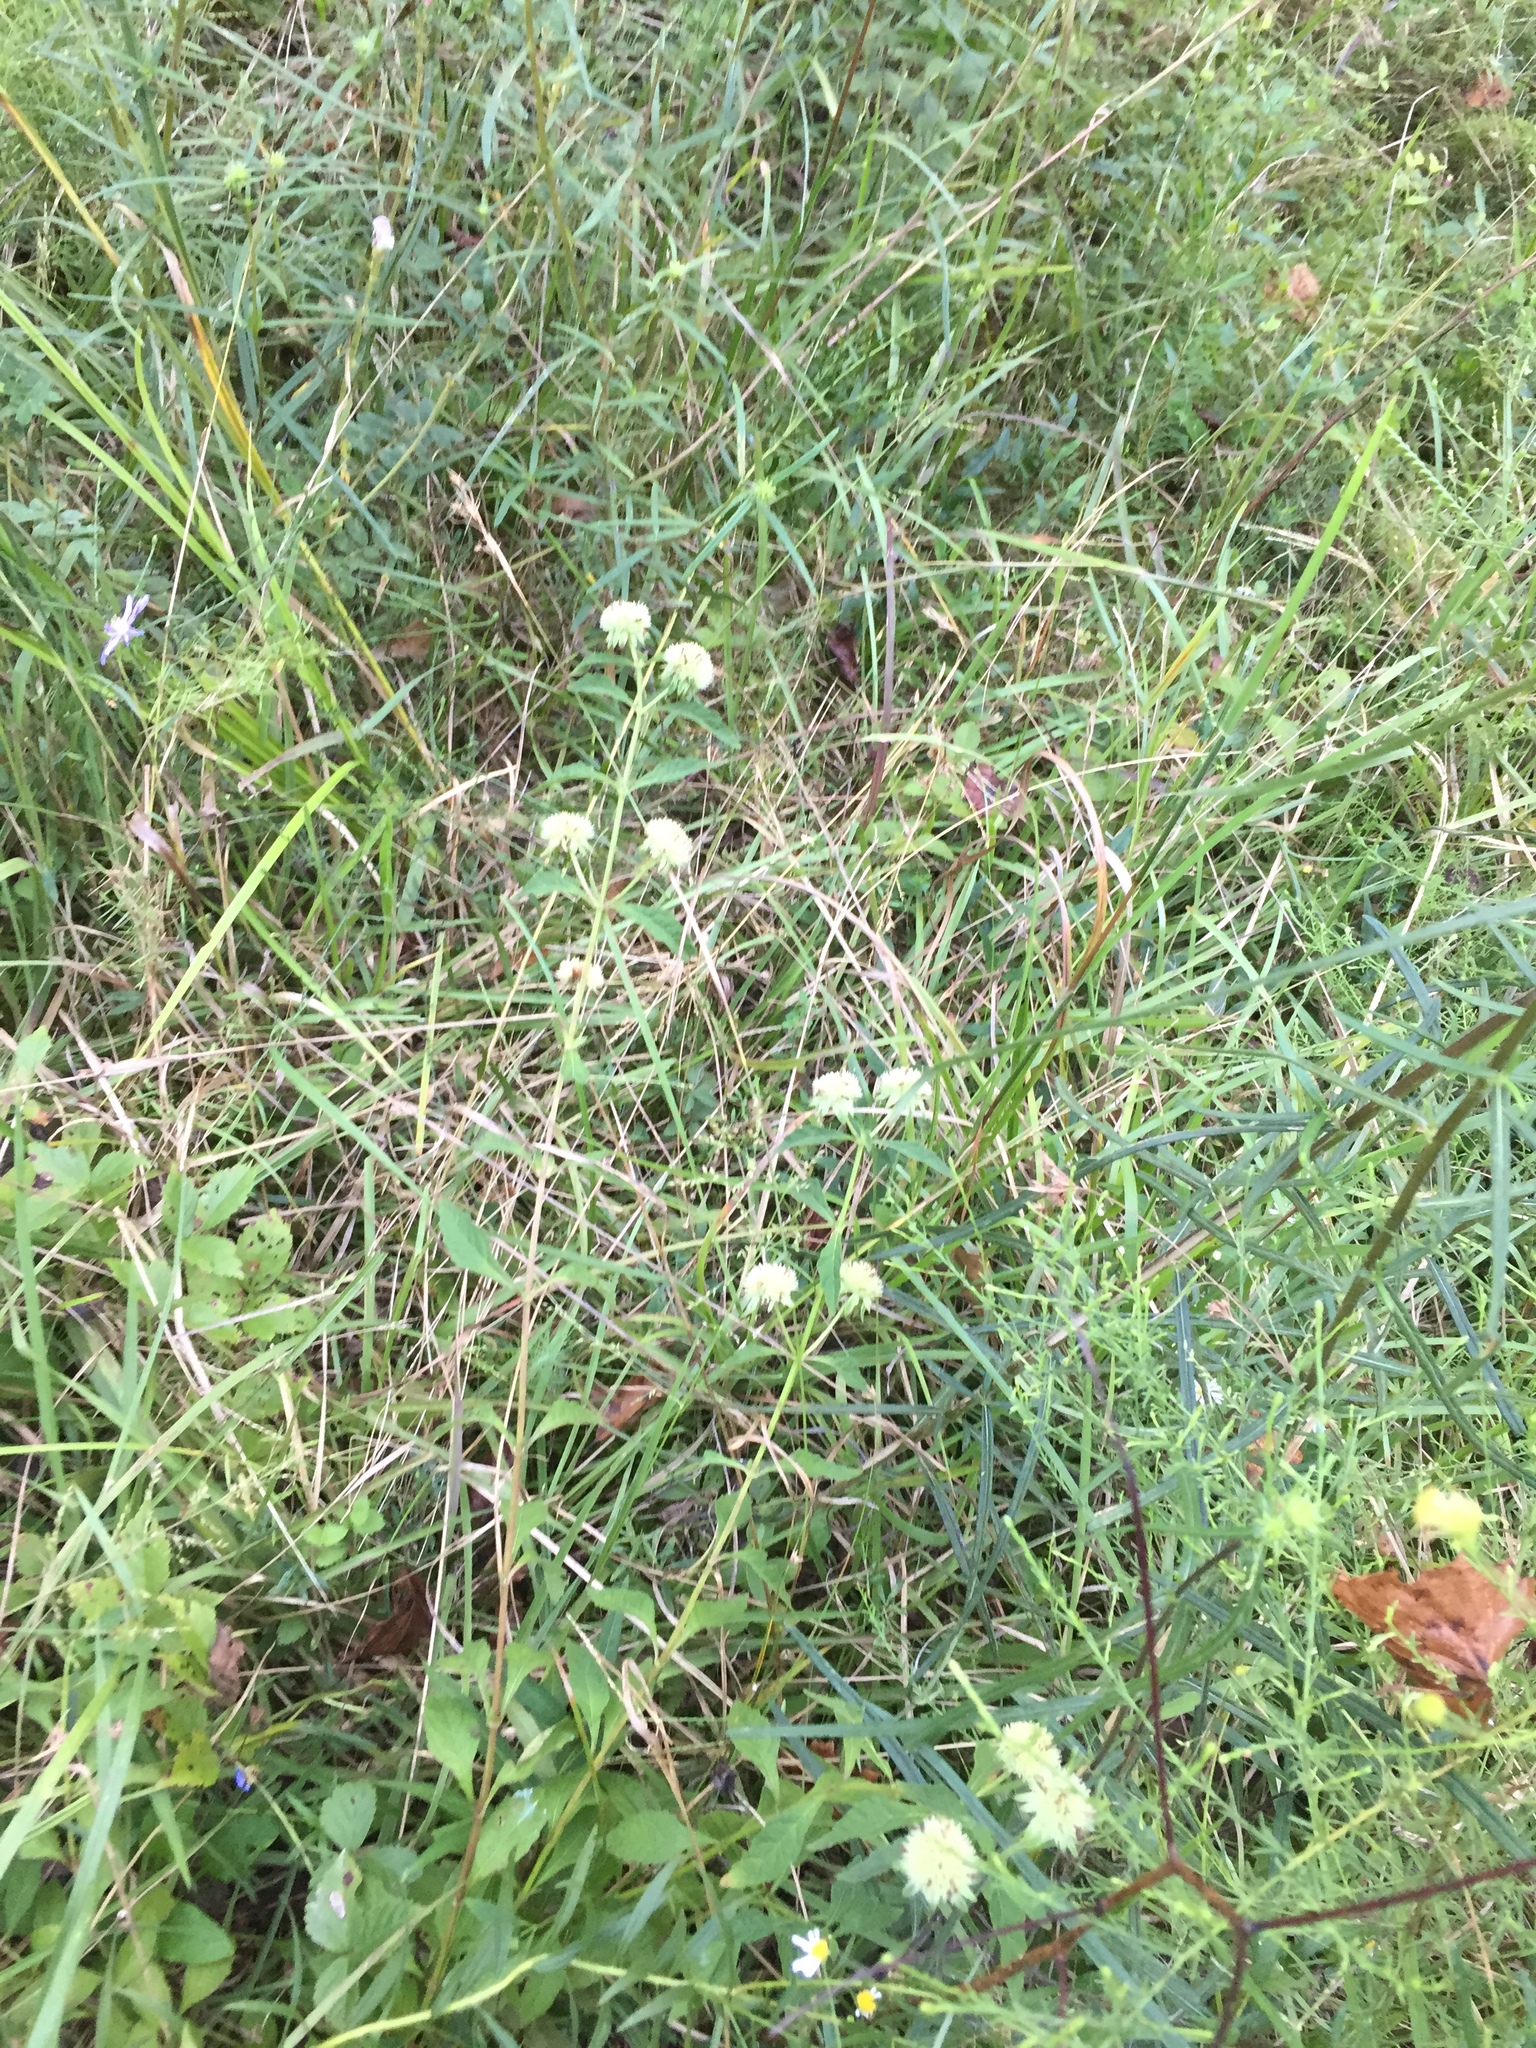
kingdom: Plantae
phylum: Tracheophyta
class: Magnoliopsida
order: Lamiales
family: Lamiaceae
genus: Hyptis
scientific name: Hyptis alata
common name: Cluster bush-mint
